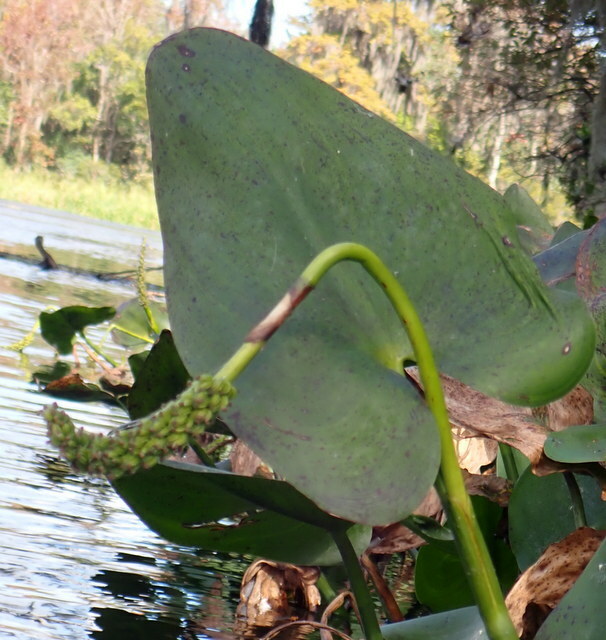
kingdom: Plantae
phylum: Tracheophyta
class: Liliopsida
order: Commelinales
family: Pontederiaceae
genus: Pontederia
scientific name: Pontederia cordata
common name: Pickerelweed
